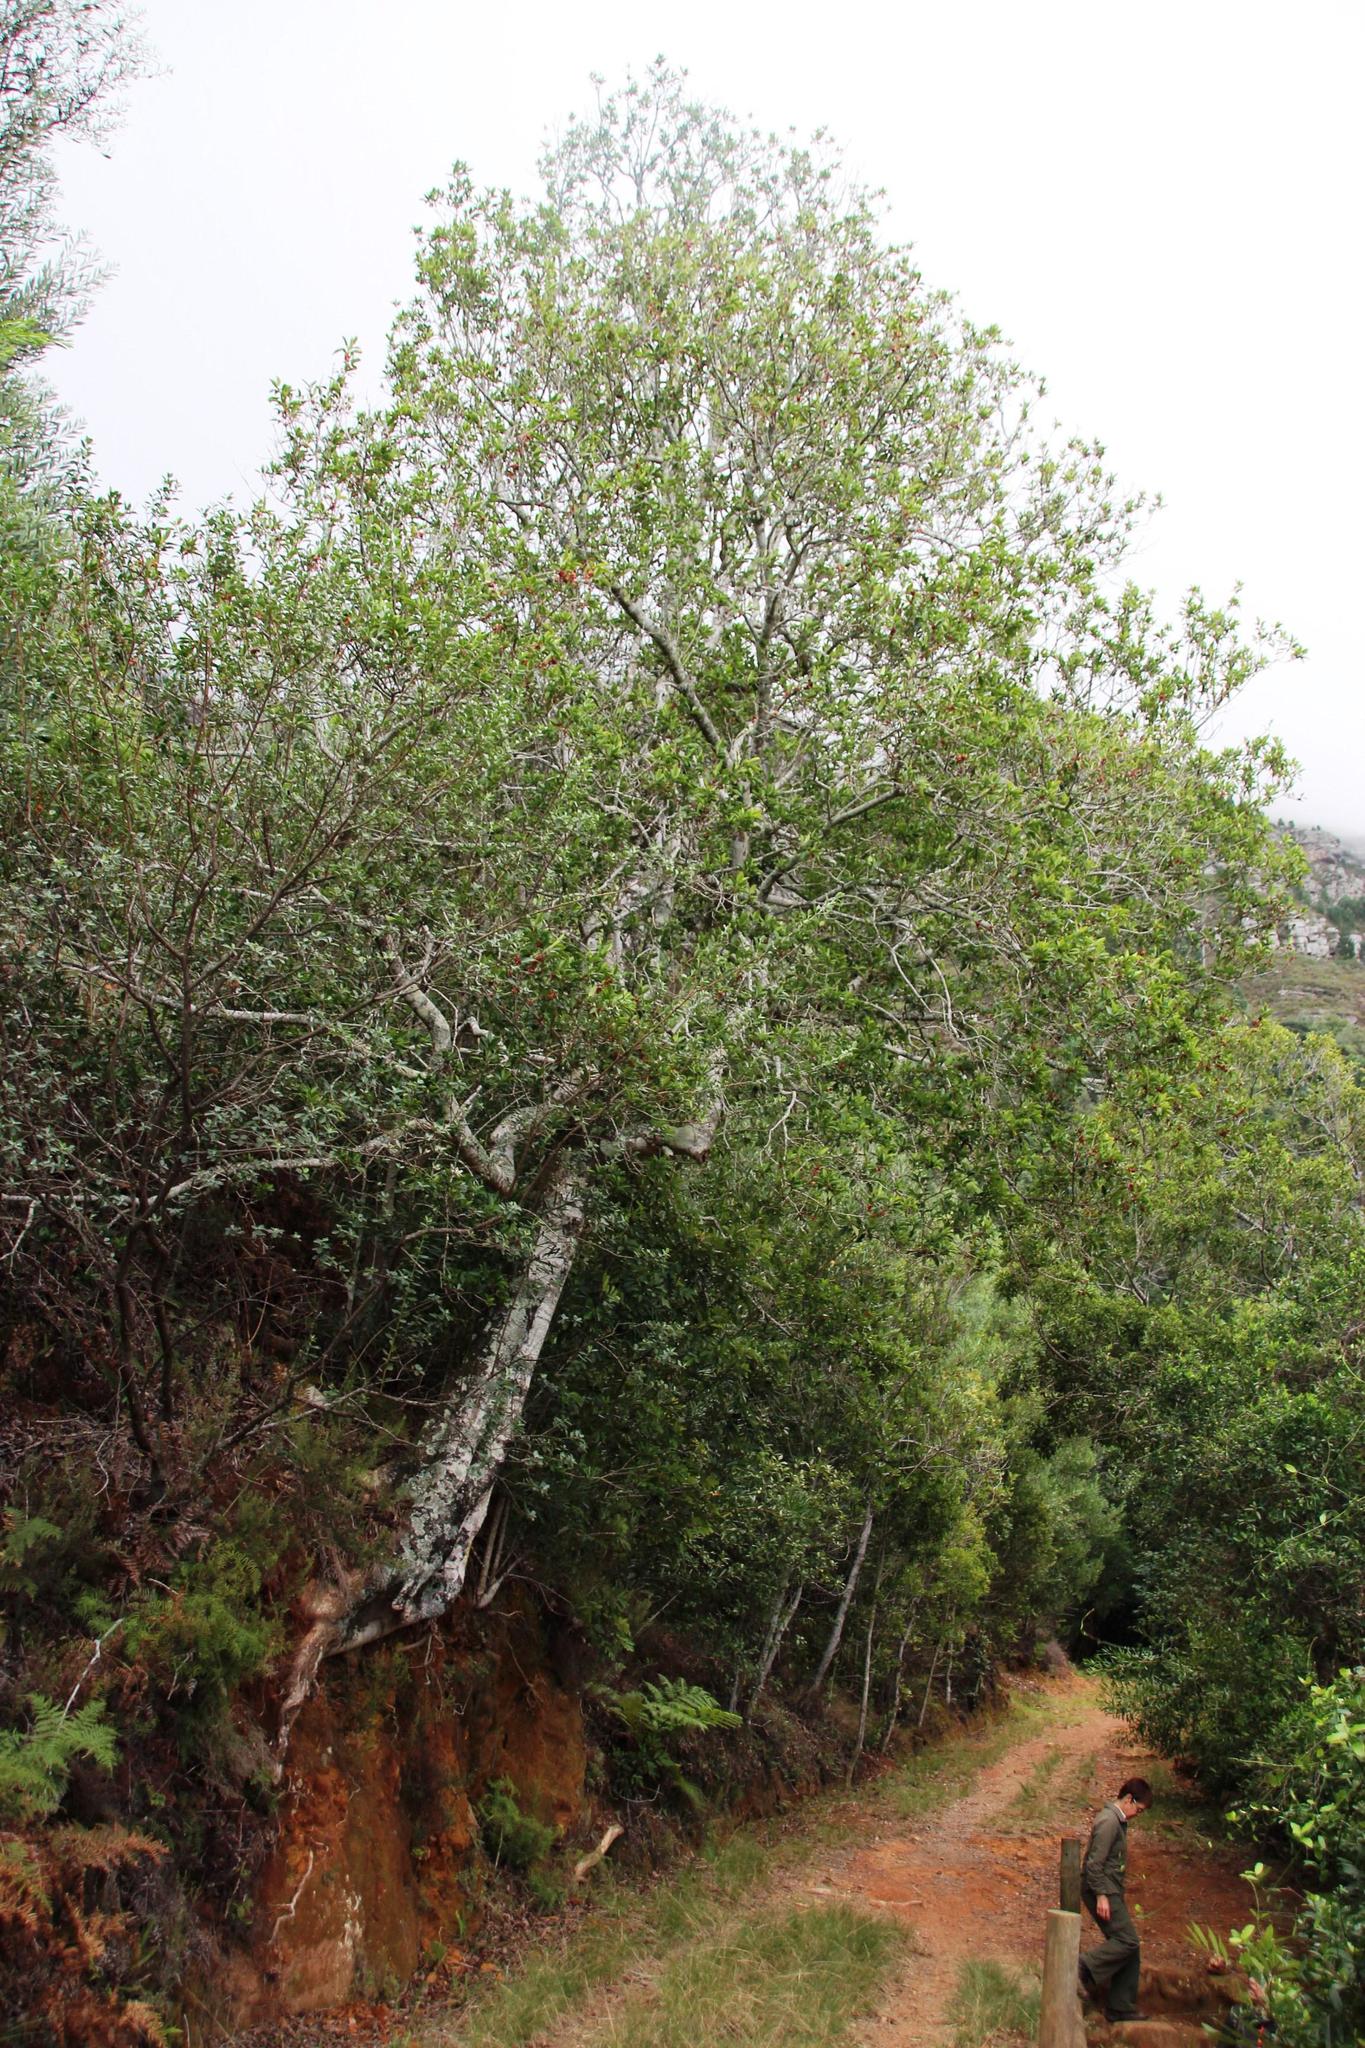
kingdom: Plantae
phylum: Tracheophyta
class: Magnoliopsida
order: Aquifoliales
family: Aquifoliaceae
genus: Ilex
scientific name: Ilex mitis
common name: African holly
